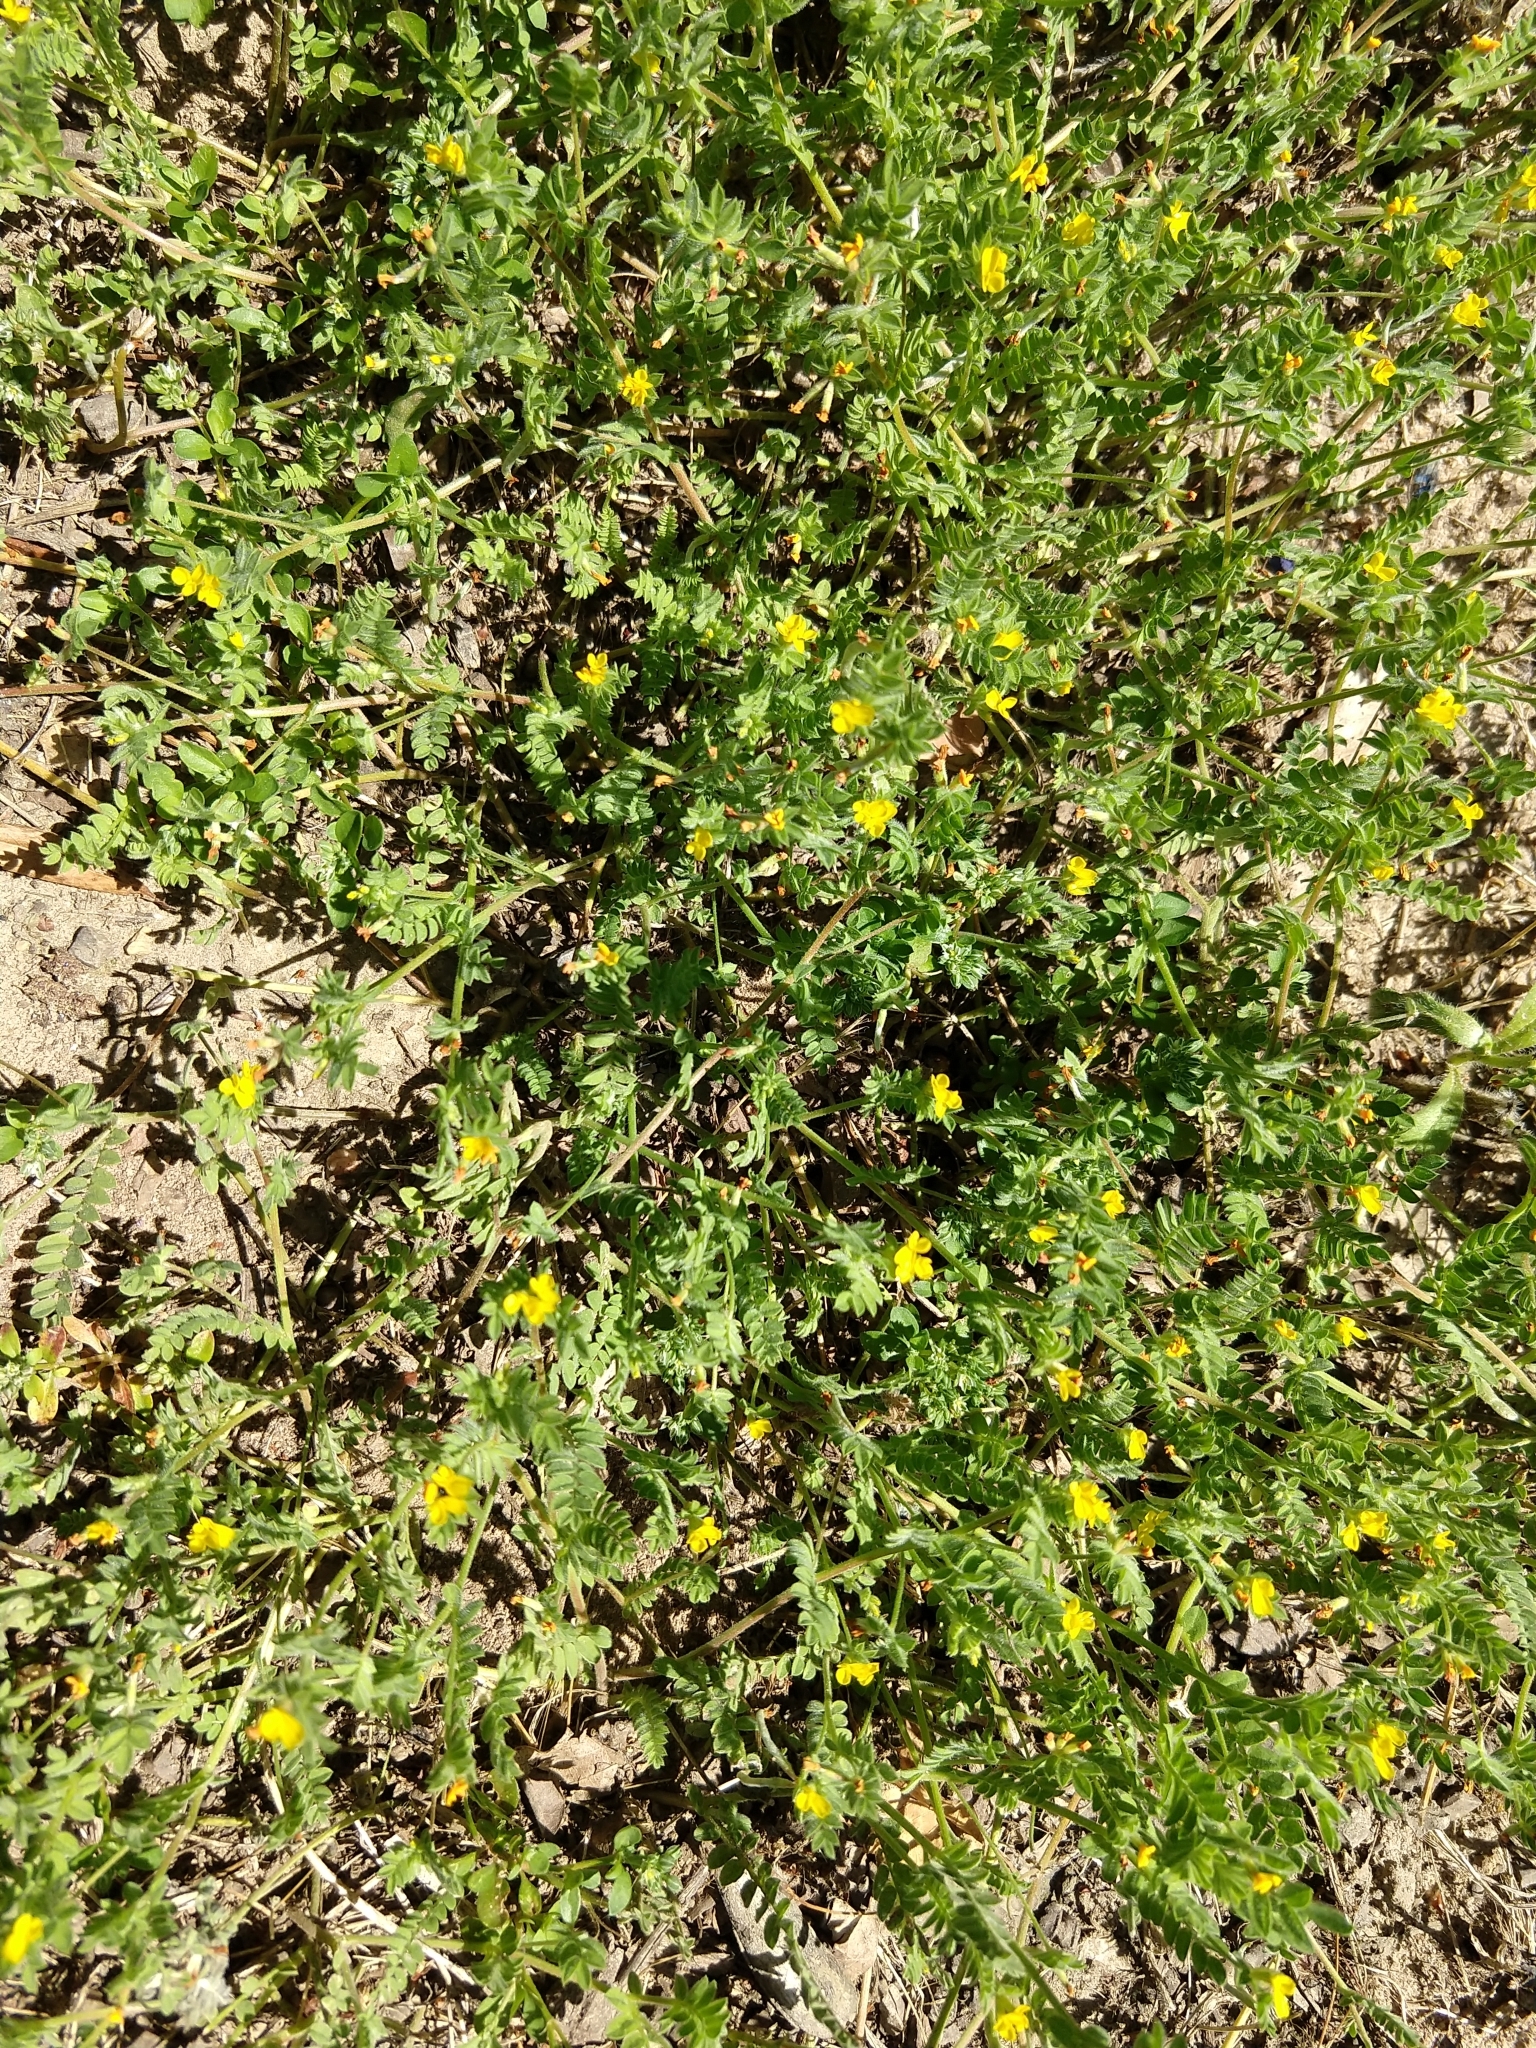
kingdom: Plantae
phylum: Tracheophyta
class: Magnoliopsida
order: Fabales
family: Fabaceae
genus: Ornithopus
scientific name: Ornithopus compressus
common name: Yellow serradella
